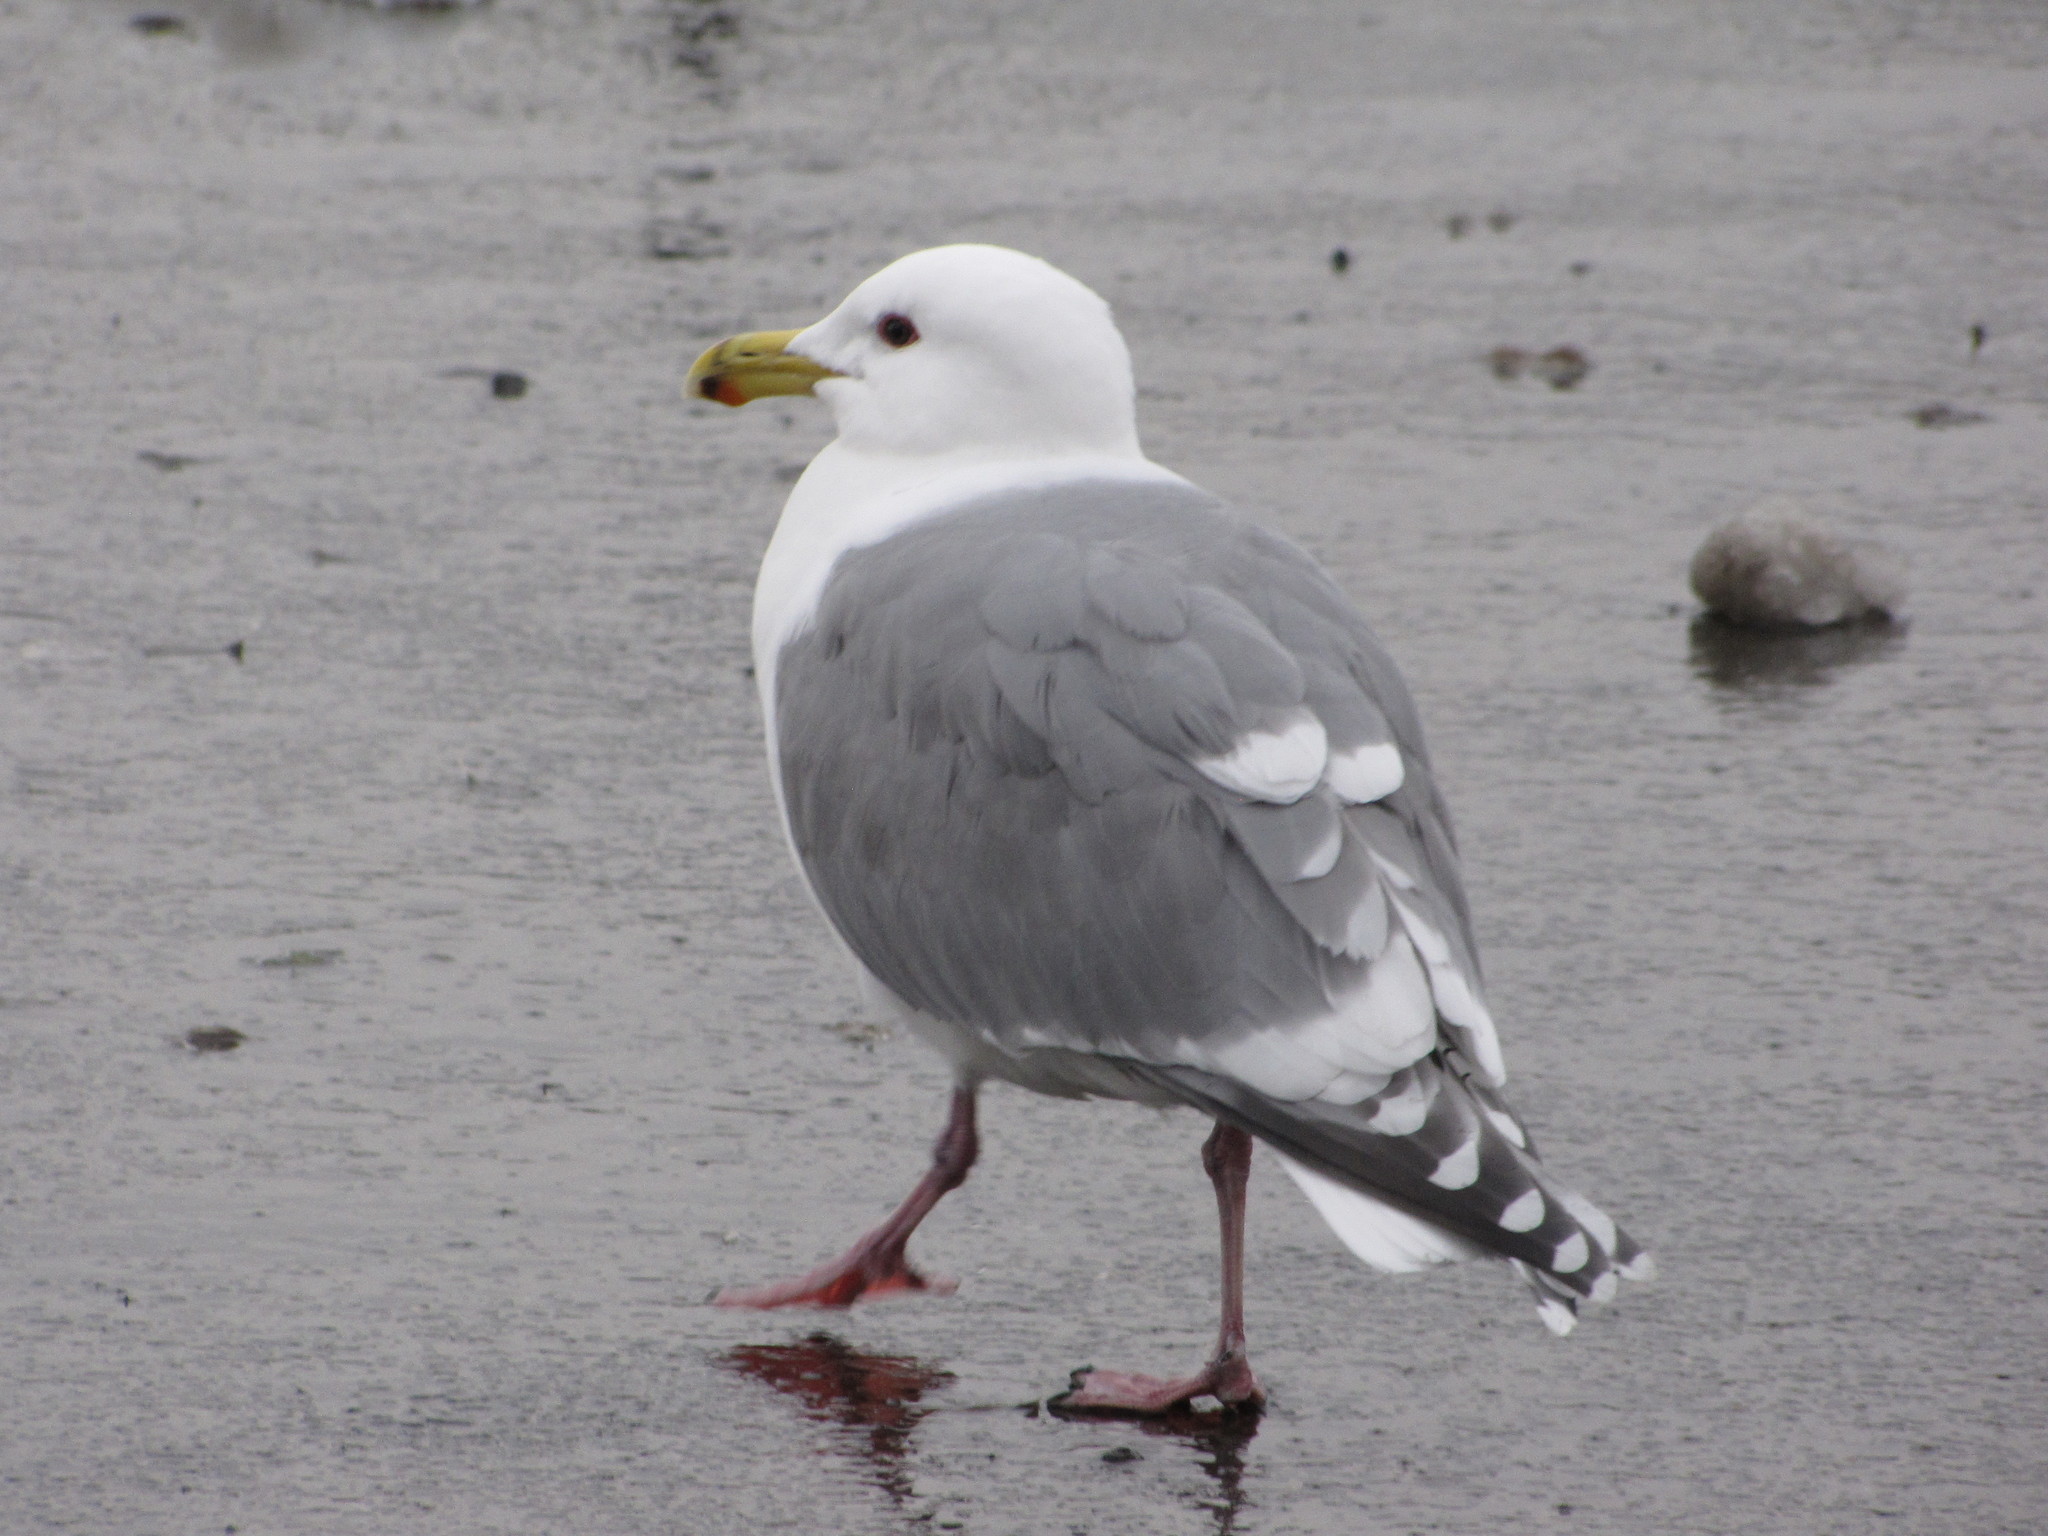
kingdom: Animalia
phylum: Chordata
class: Aves
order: Charadriiformes
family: Laridae
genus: Larus
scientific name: Larus
